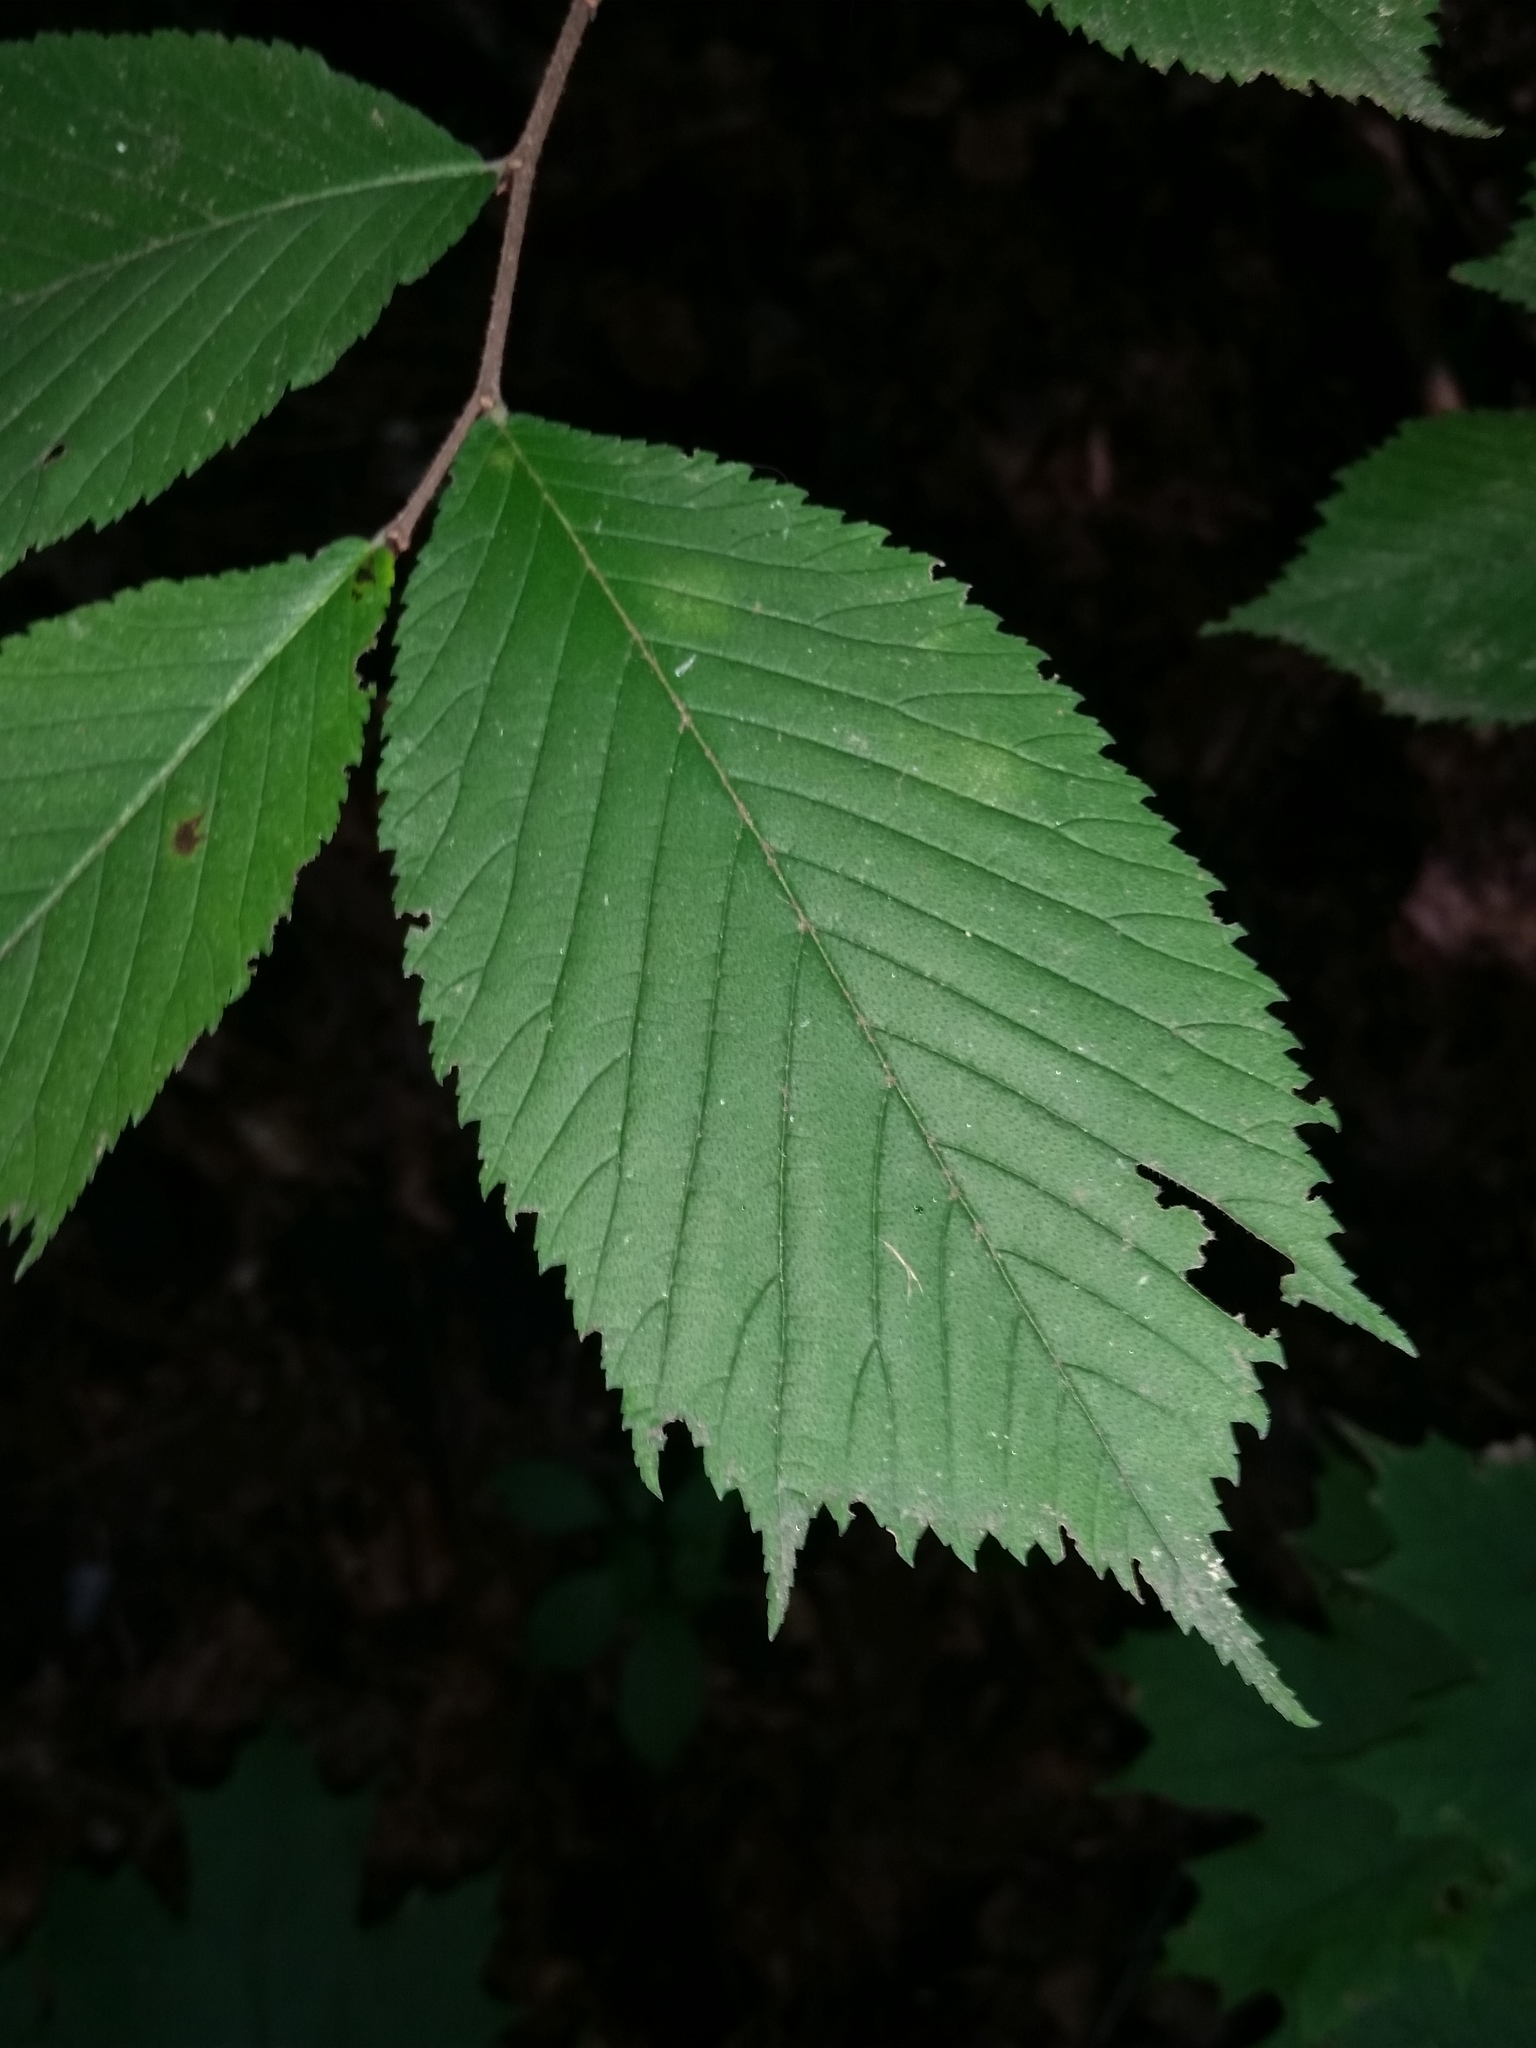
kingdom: Plantae
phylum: Tracheophyta
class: Magnoliopsida
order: Rosales
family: Ulmaceae
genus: Ulmus
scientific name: Ulmus glabra
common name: Wych elm
